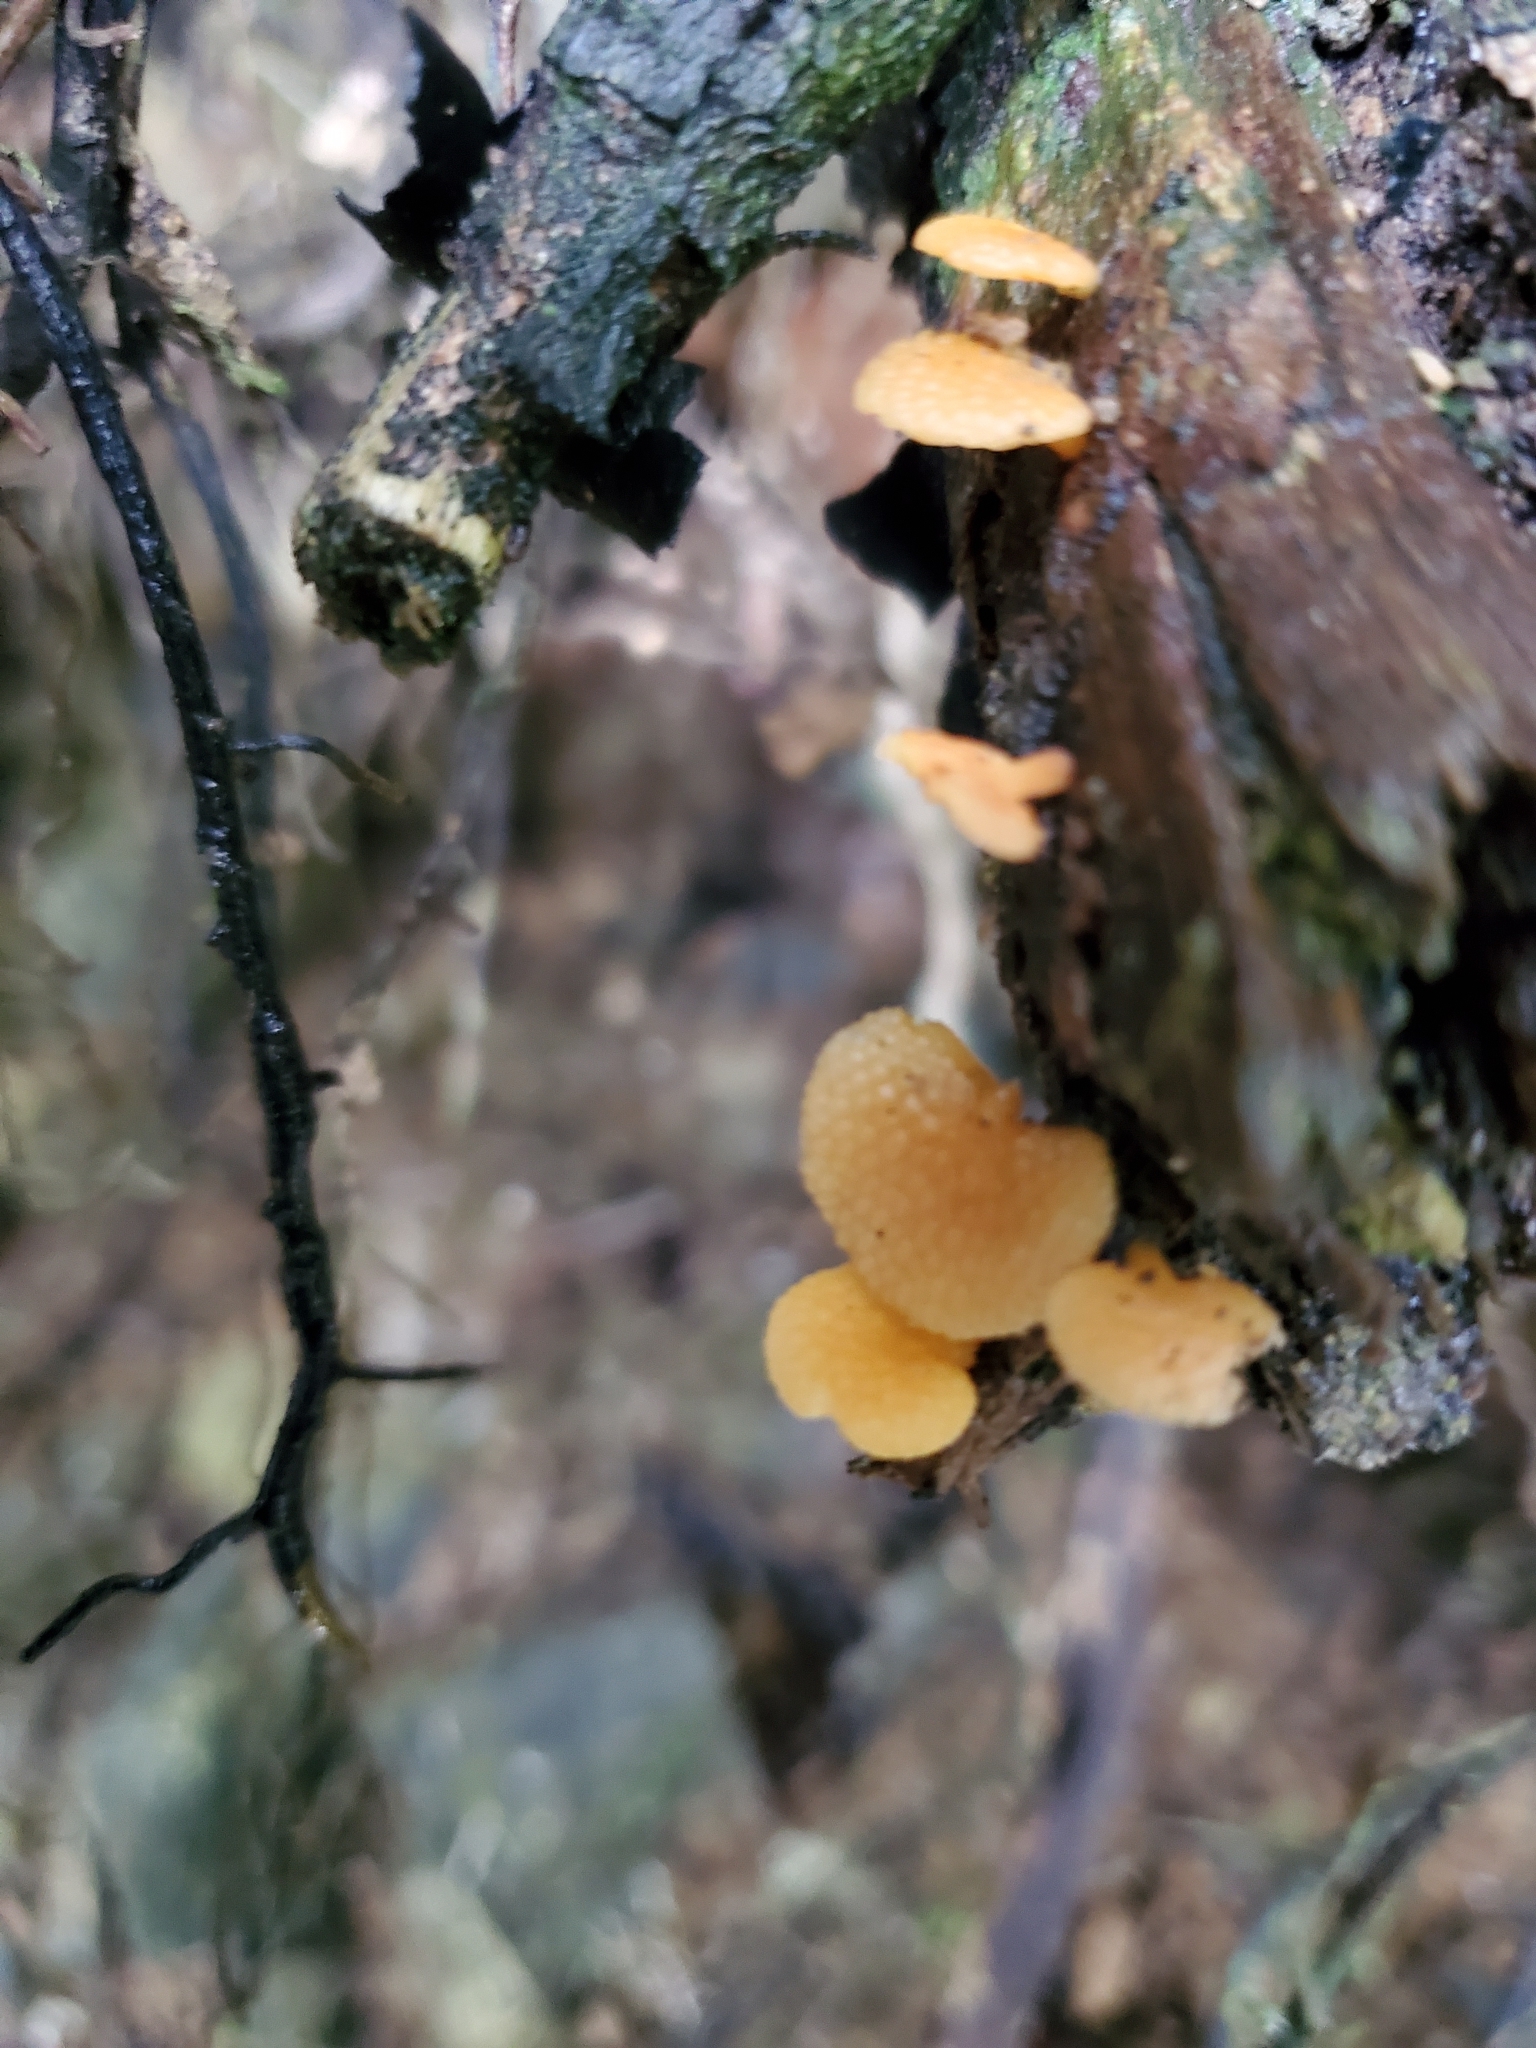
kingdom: Fungi
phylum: Basidiomycota
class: Agaricomycetes
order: Agaricales
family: Mycenaceae
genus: Favolaschia
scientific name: Favolaschia claudopus
